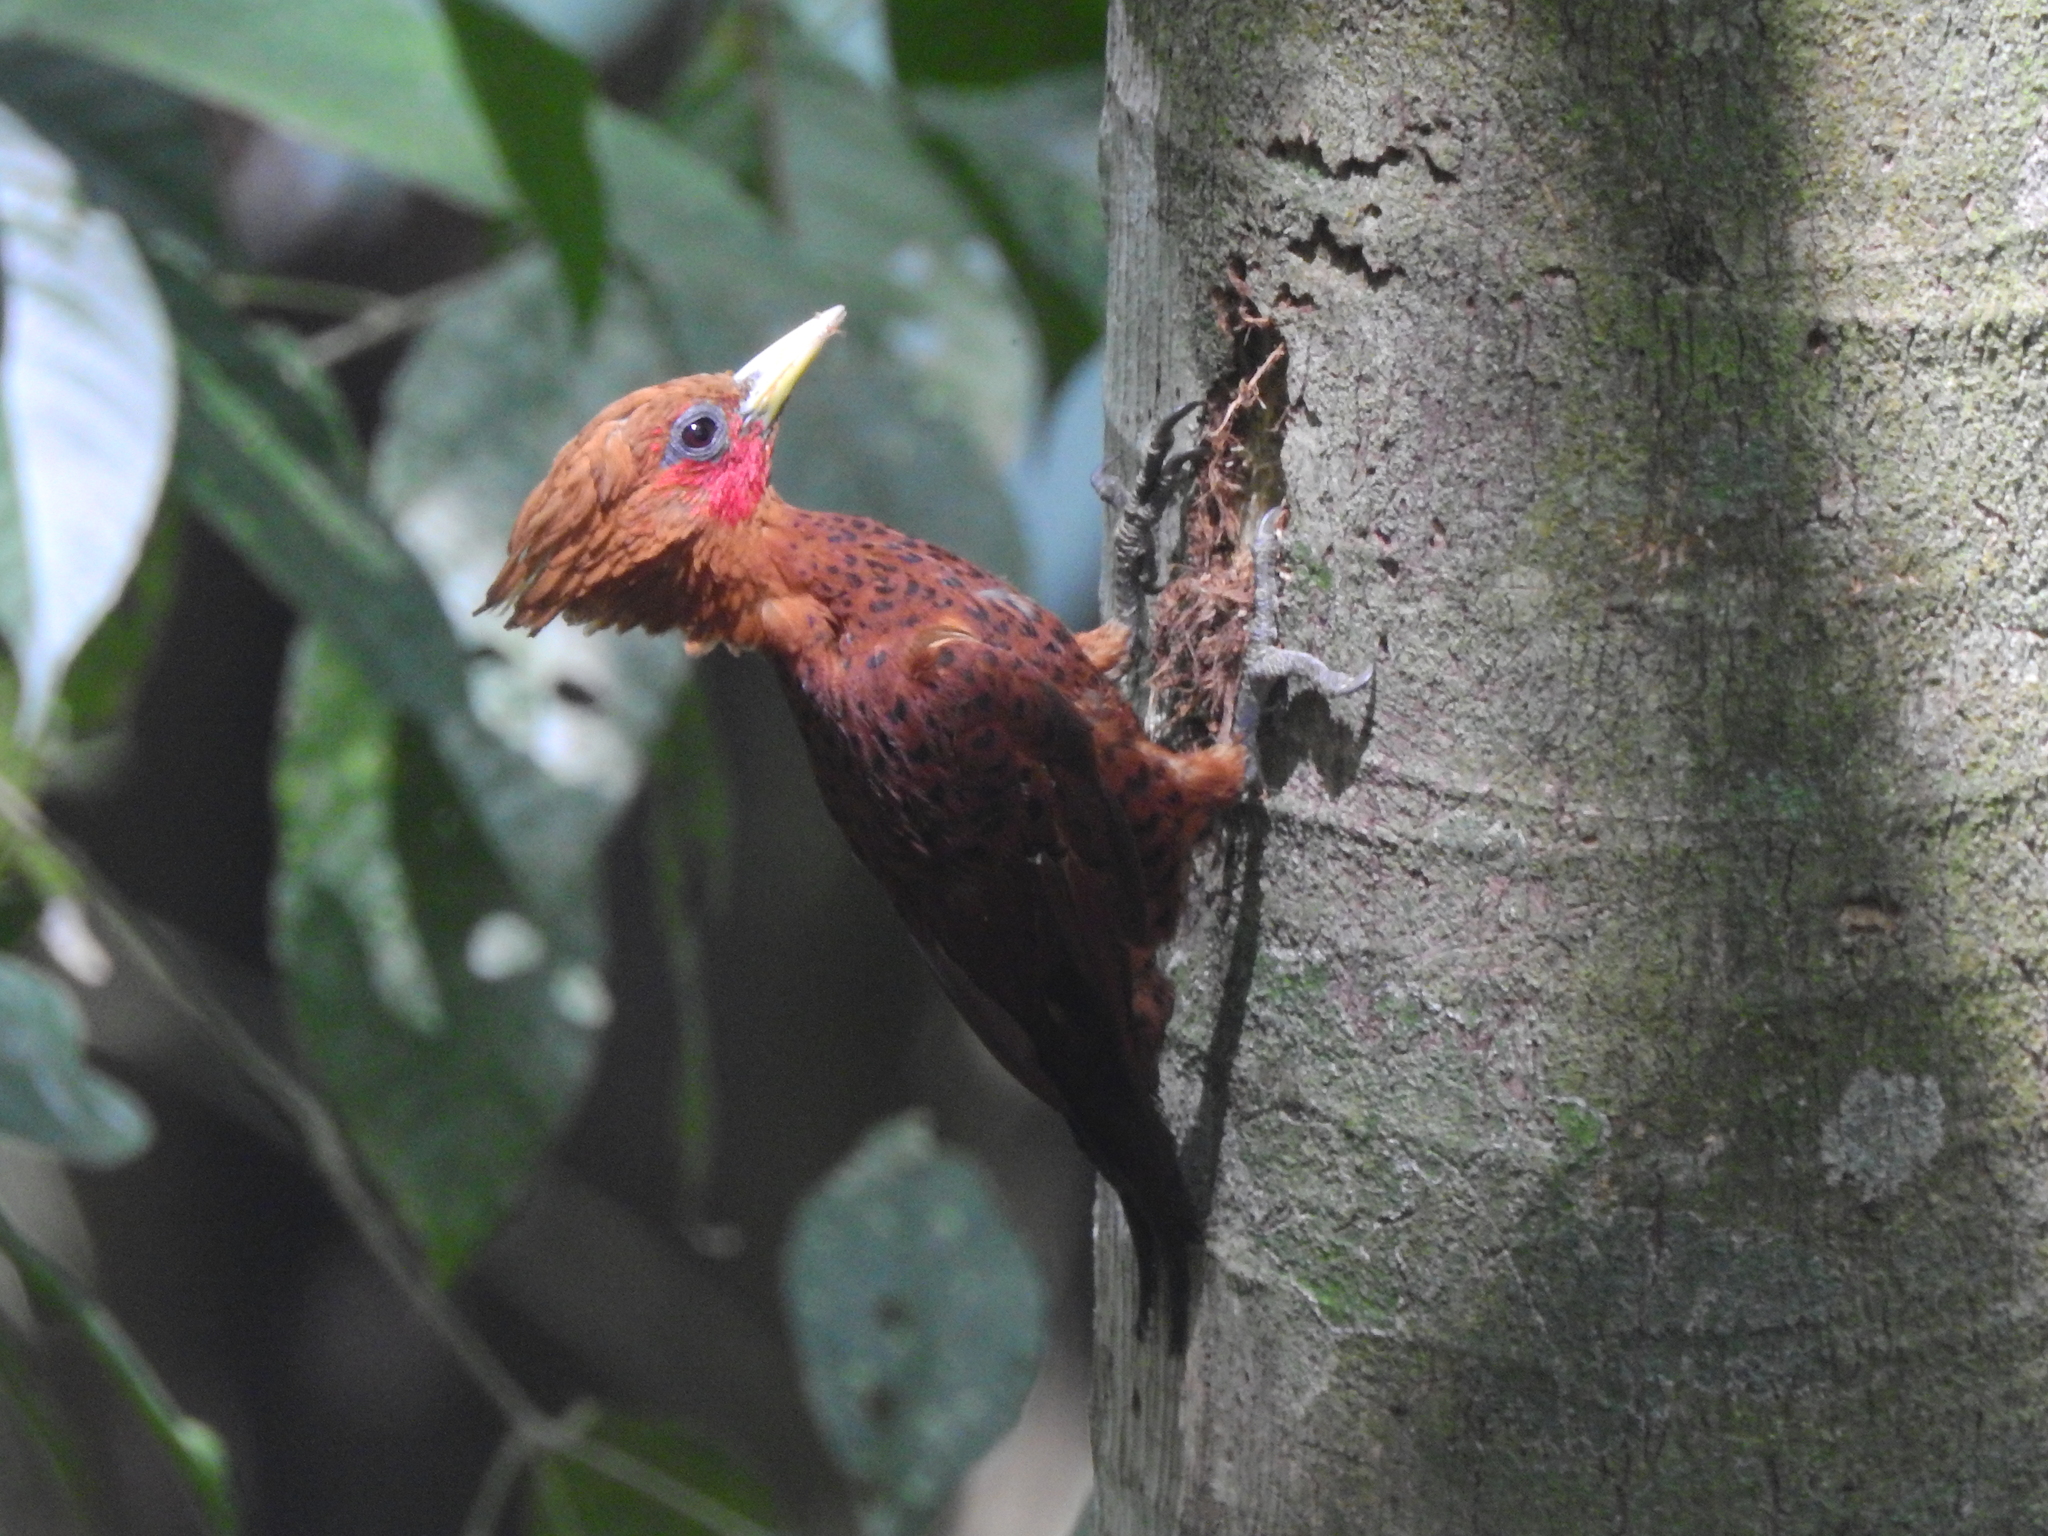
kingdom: Animalia
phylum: Chordata
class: Aves
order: Piciformes
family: Picidae
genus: Celeus
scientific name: Celeus castaneus
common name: Chestnut-colored woodpecker
